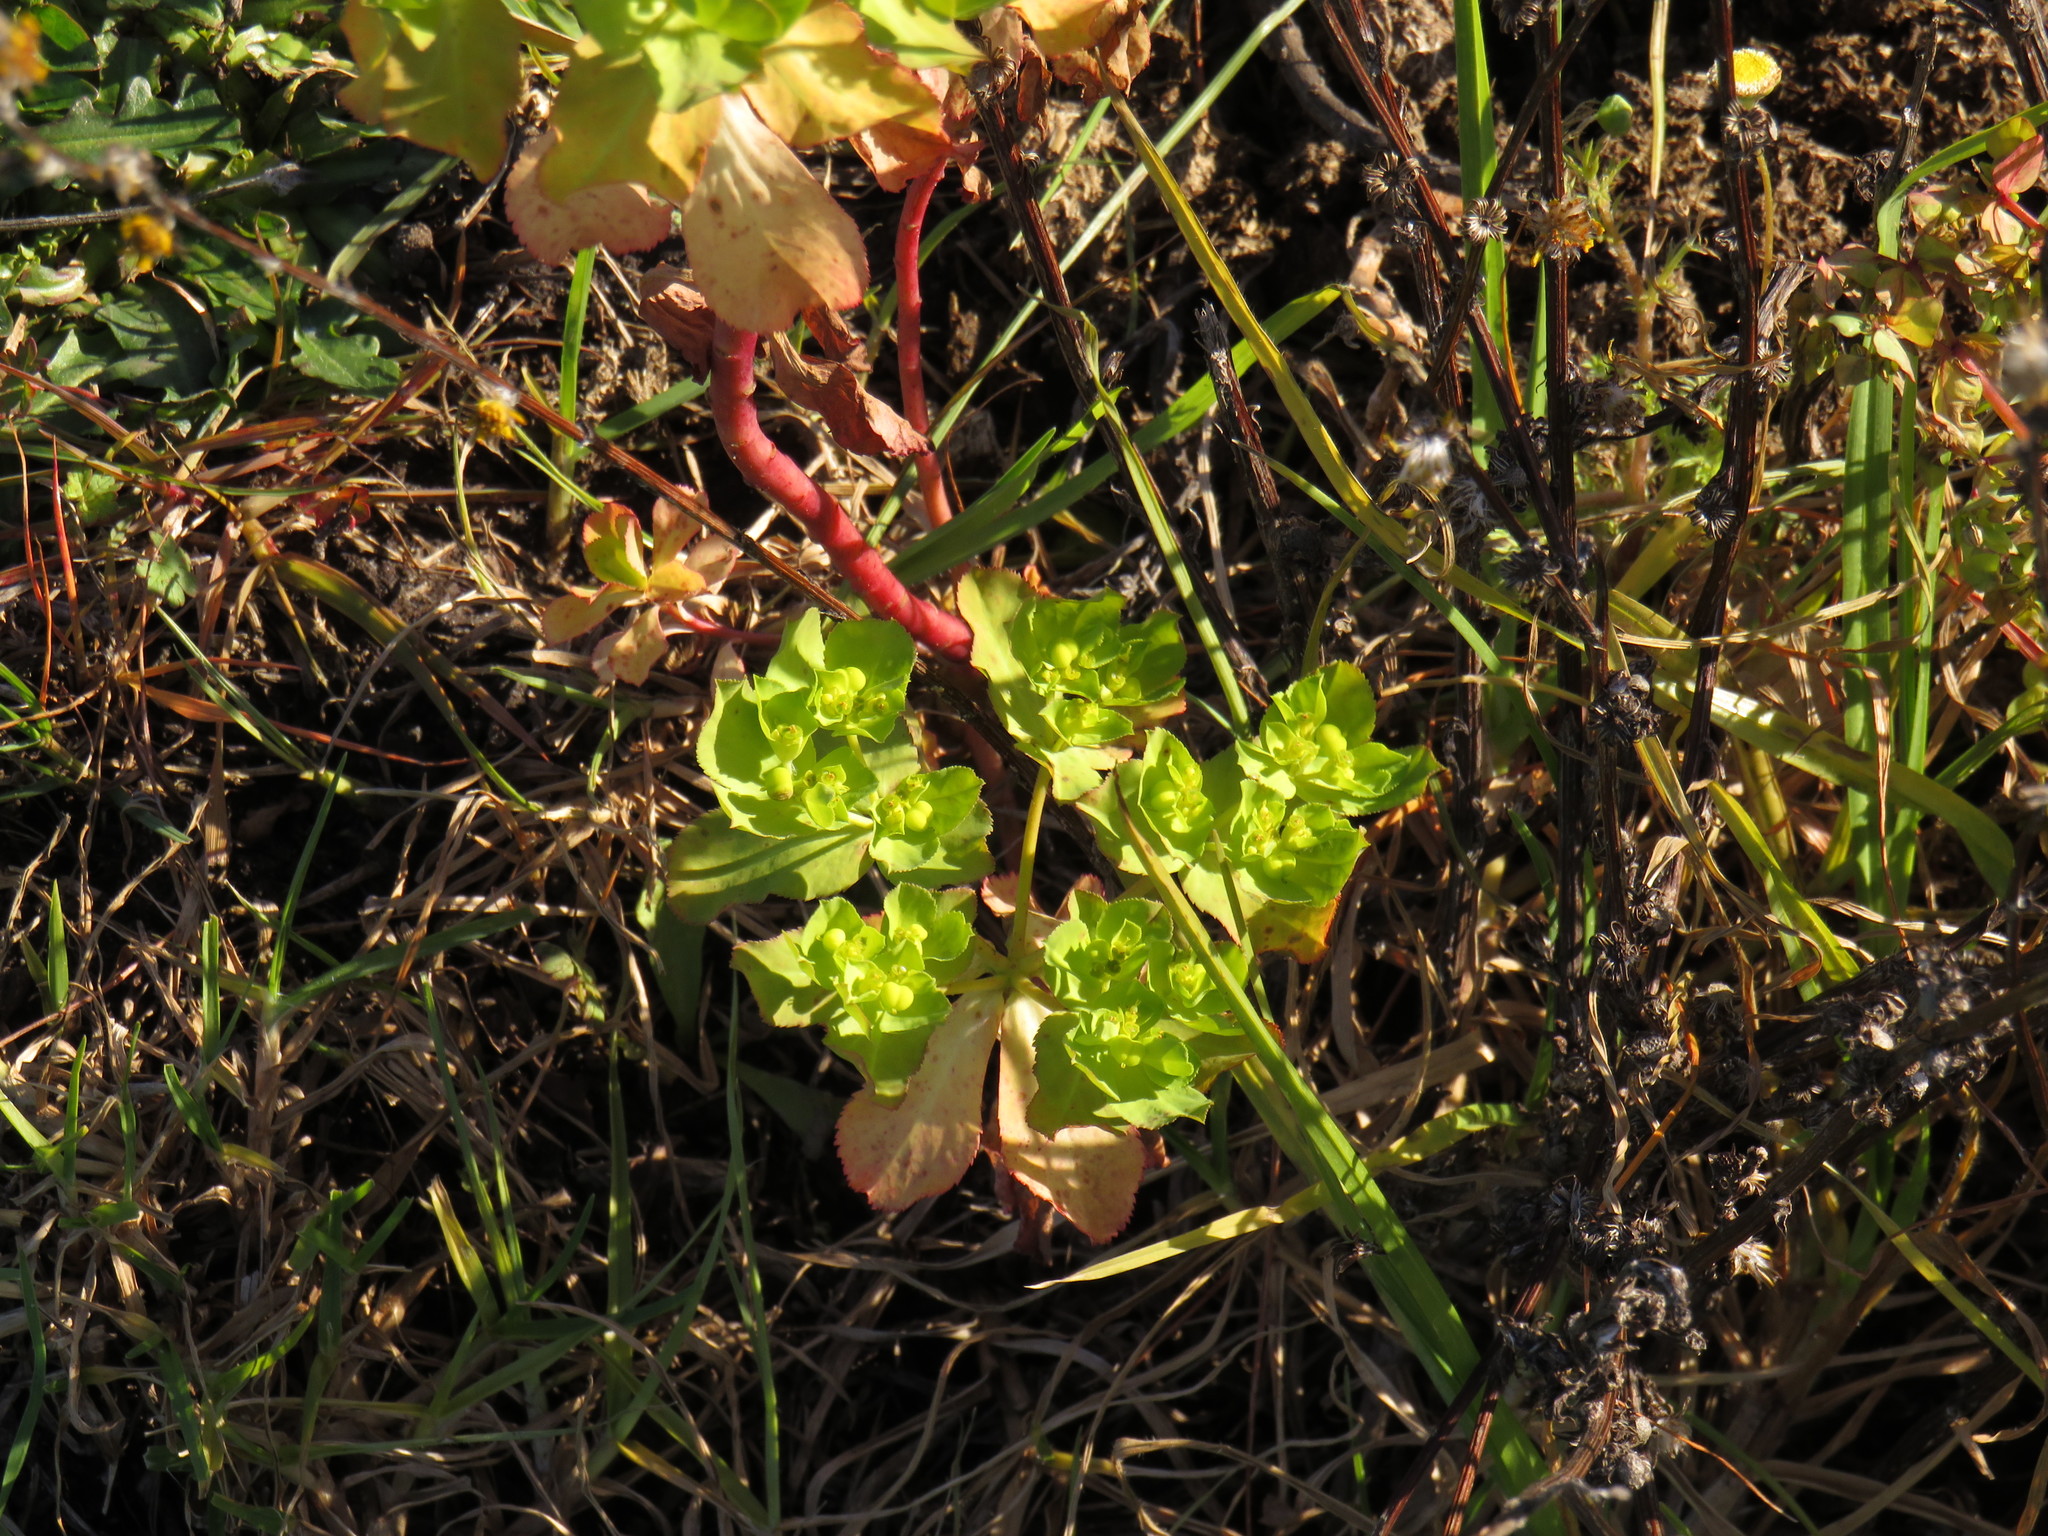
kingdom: Plantae
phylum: Tracheophyta
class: Magnoliopsida
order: Malpighiales
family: Euphorbiaceae
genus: Euphorbia
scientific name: Euphorbia helioscopia
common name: Sun spurge
